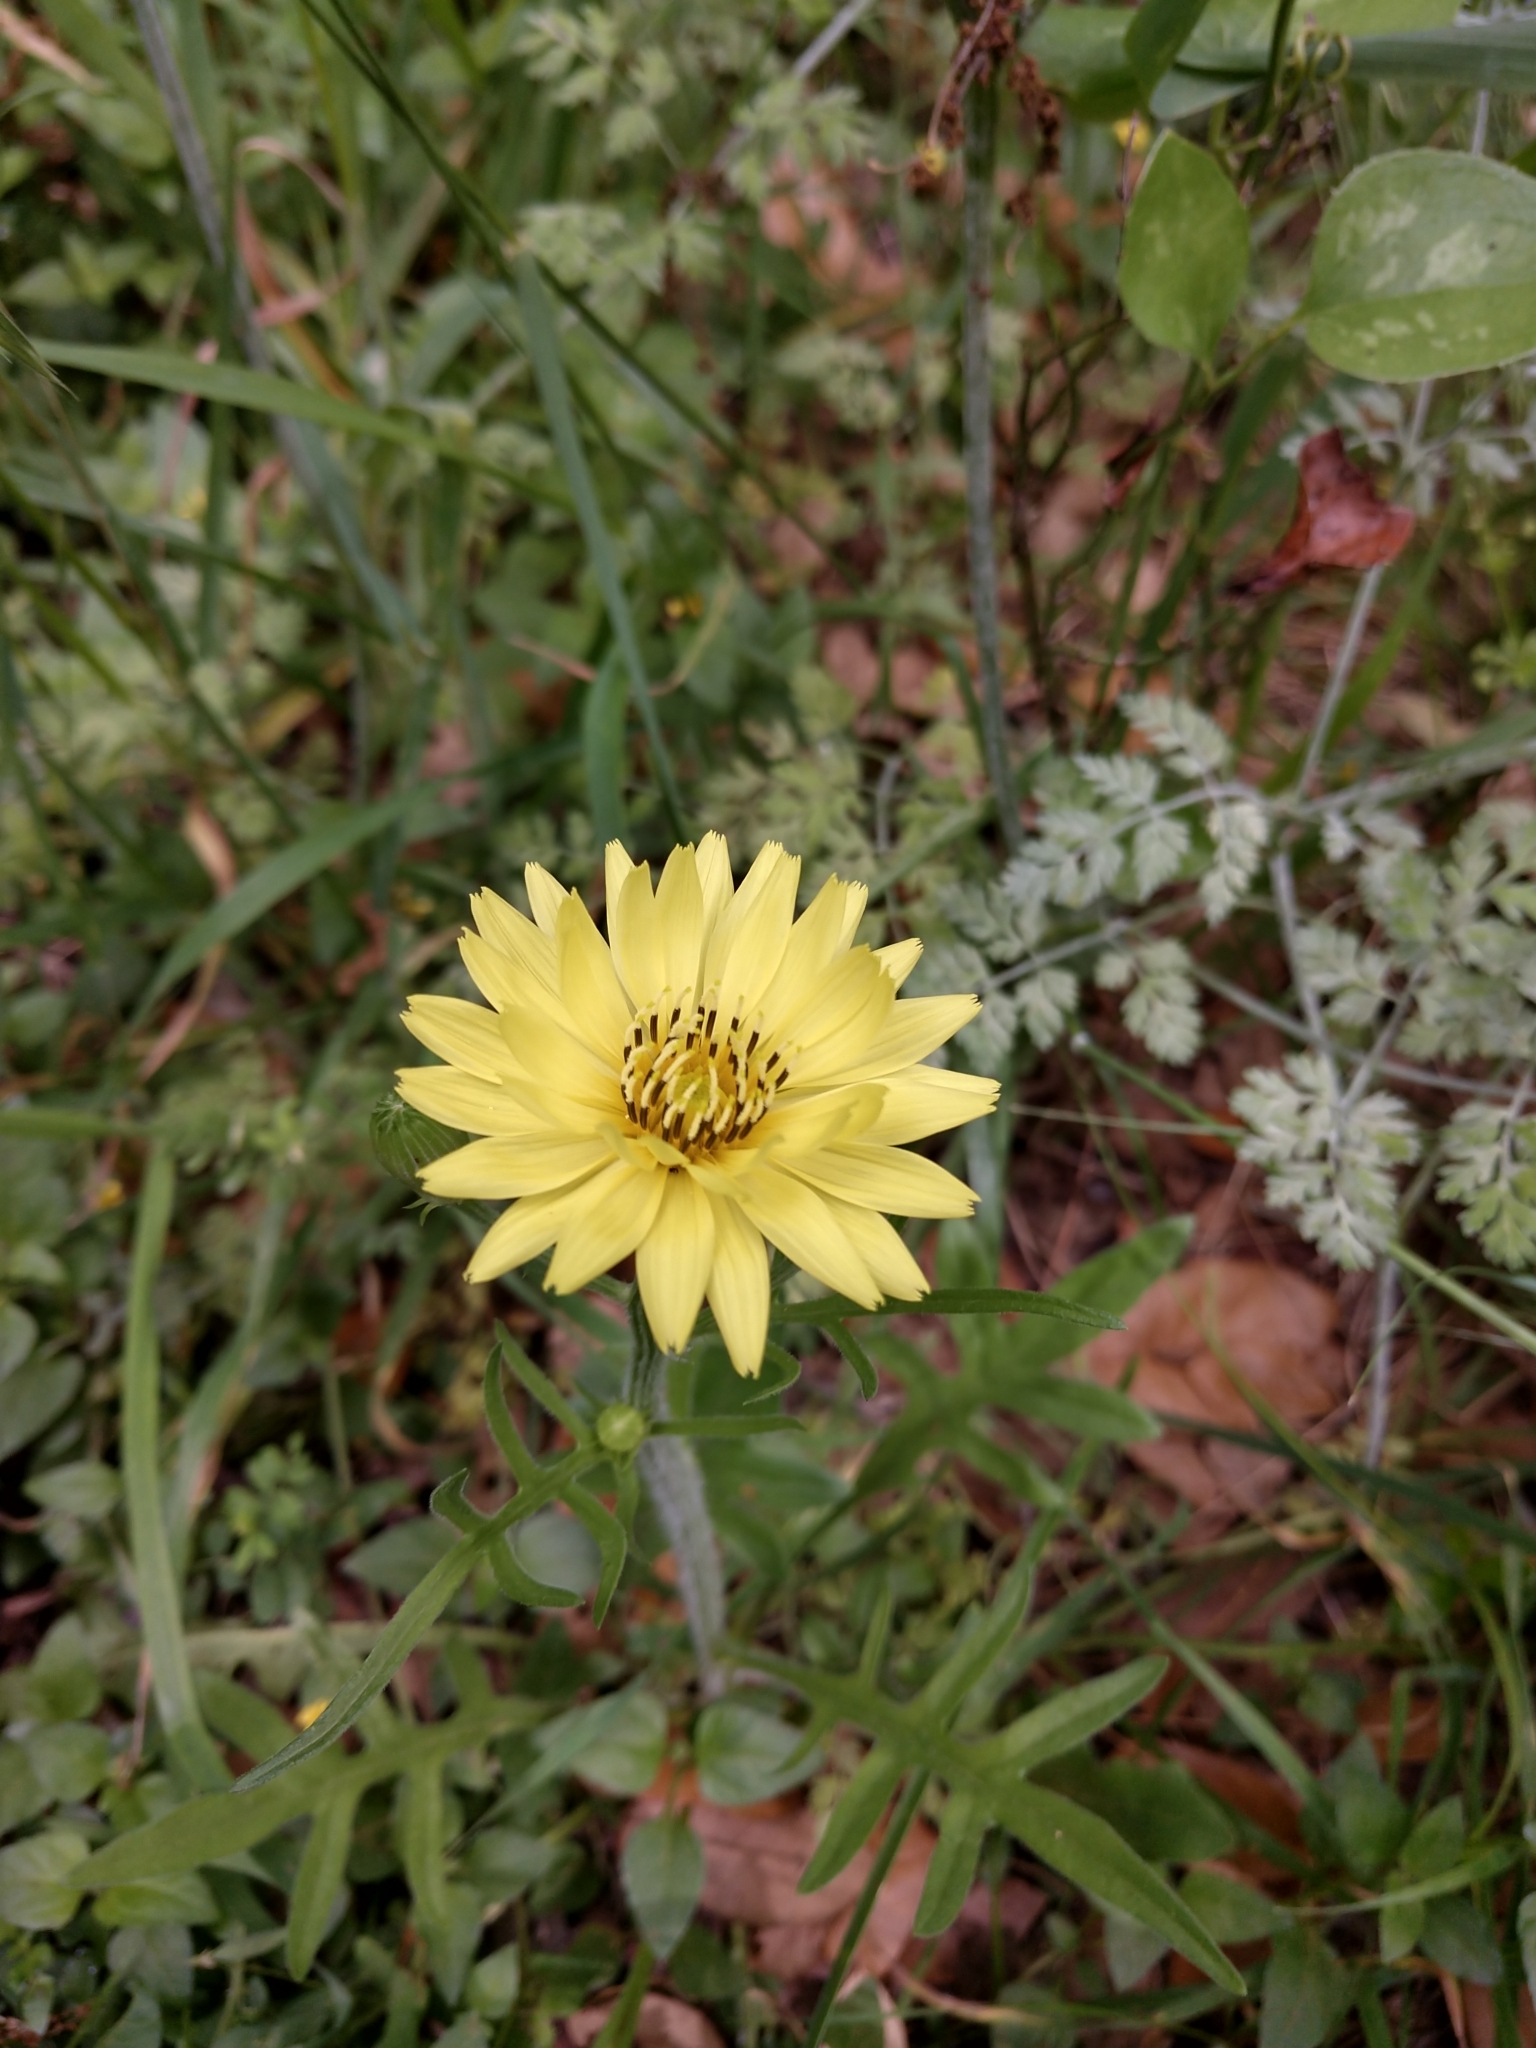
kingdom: Plantae
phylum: Tracheophyta
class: Magnoliopsida
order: Asterales
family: Asteraceae
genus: Pyrrhopappus
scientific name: Pyrrhopappus pauciflorus
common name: Texas false dandelion
